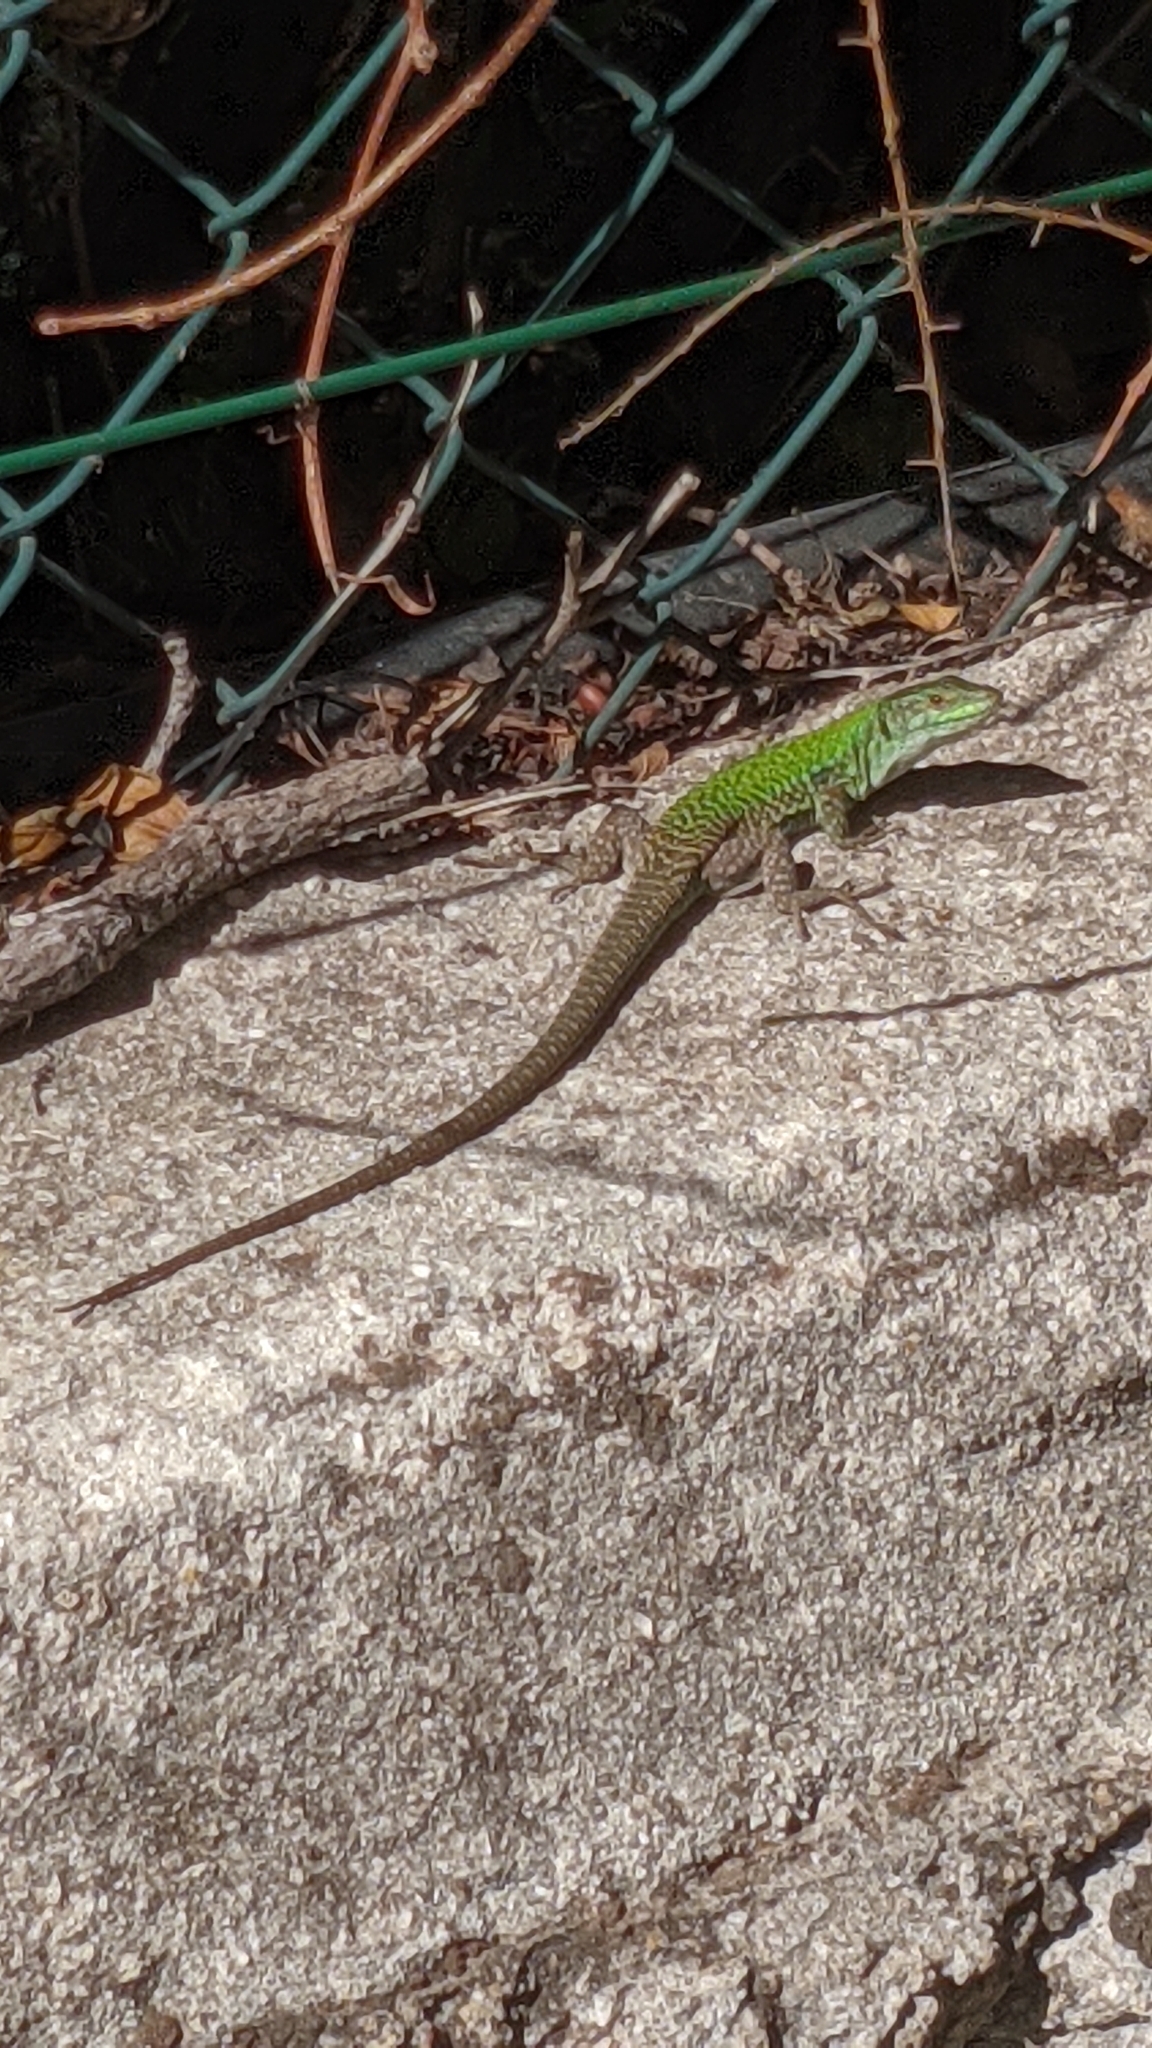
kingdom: Animalia
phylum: Chordata
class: Squamata
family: Lacertidae
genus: Podarcis
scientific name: Podarcis siculus
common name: Italian wall lizard
